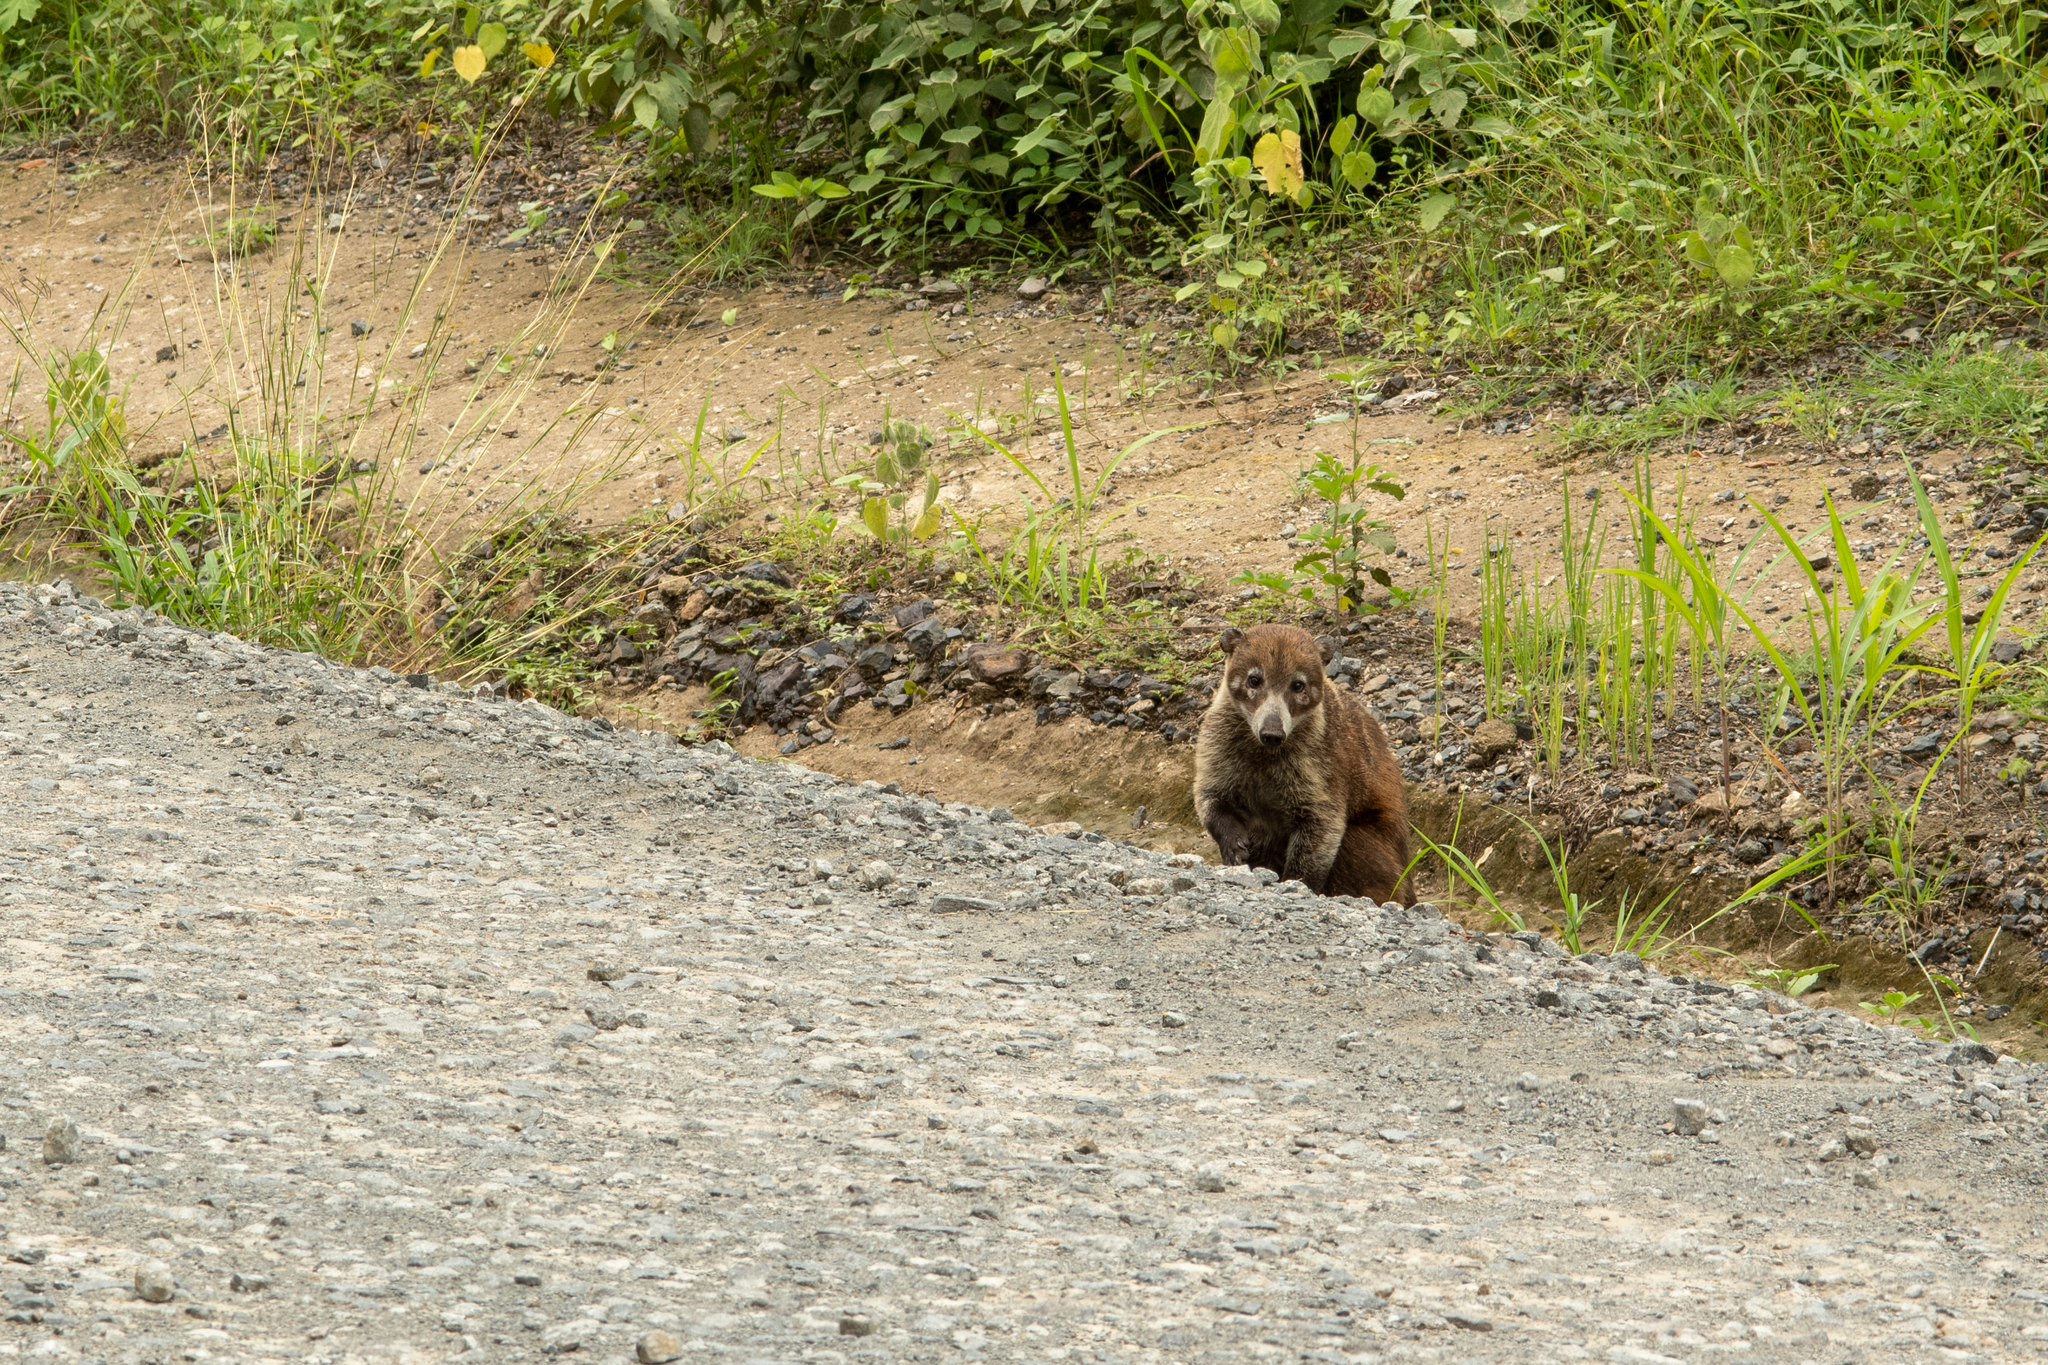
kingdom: Animalia
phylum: Chordata
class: Mammalia
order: Carnivora
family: Procyonidae
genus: Nasua
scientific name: Nasua narica
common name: White-nosed coati
